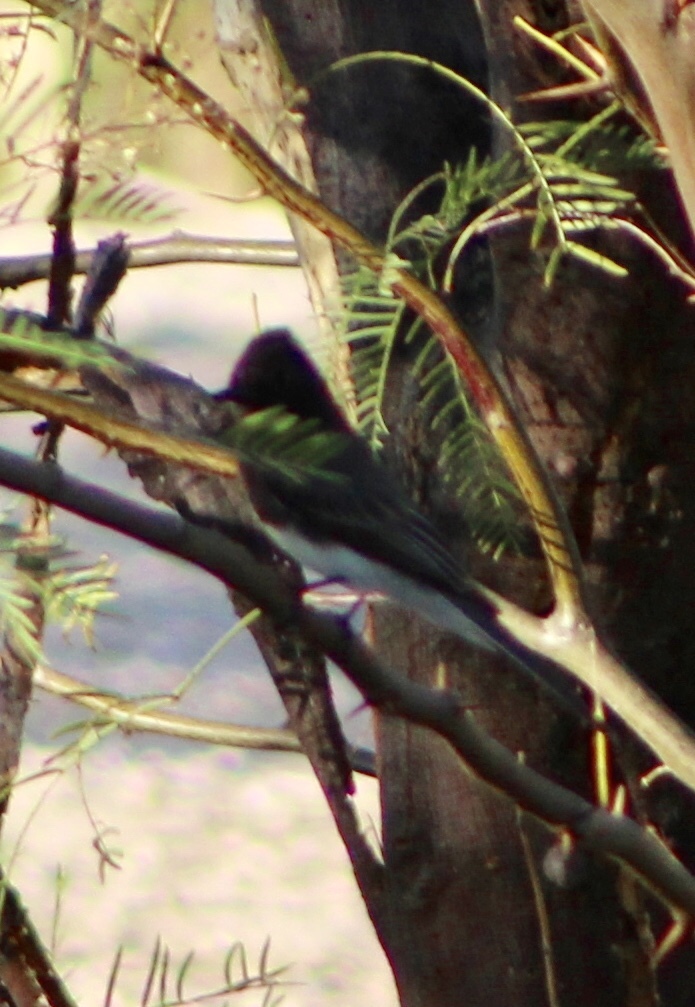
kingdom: Animalia
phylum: Chordata
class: Aves
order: Passeriformes
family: Tyrannidae
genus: Sayornis
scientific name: Sayornis nigricans
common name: Black phoebe
